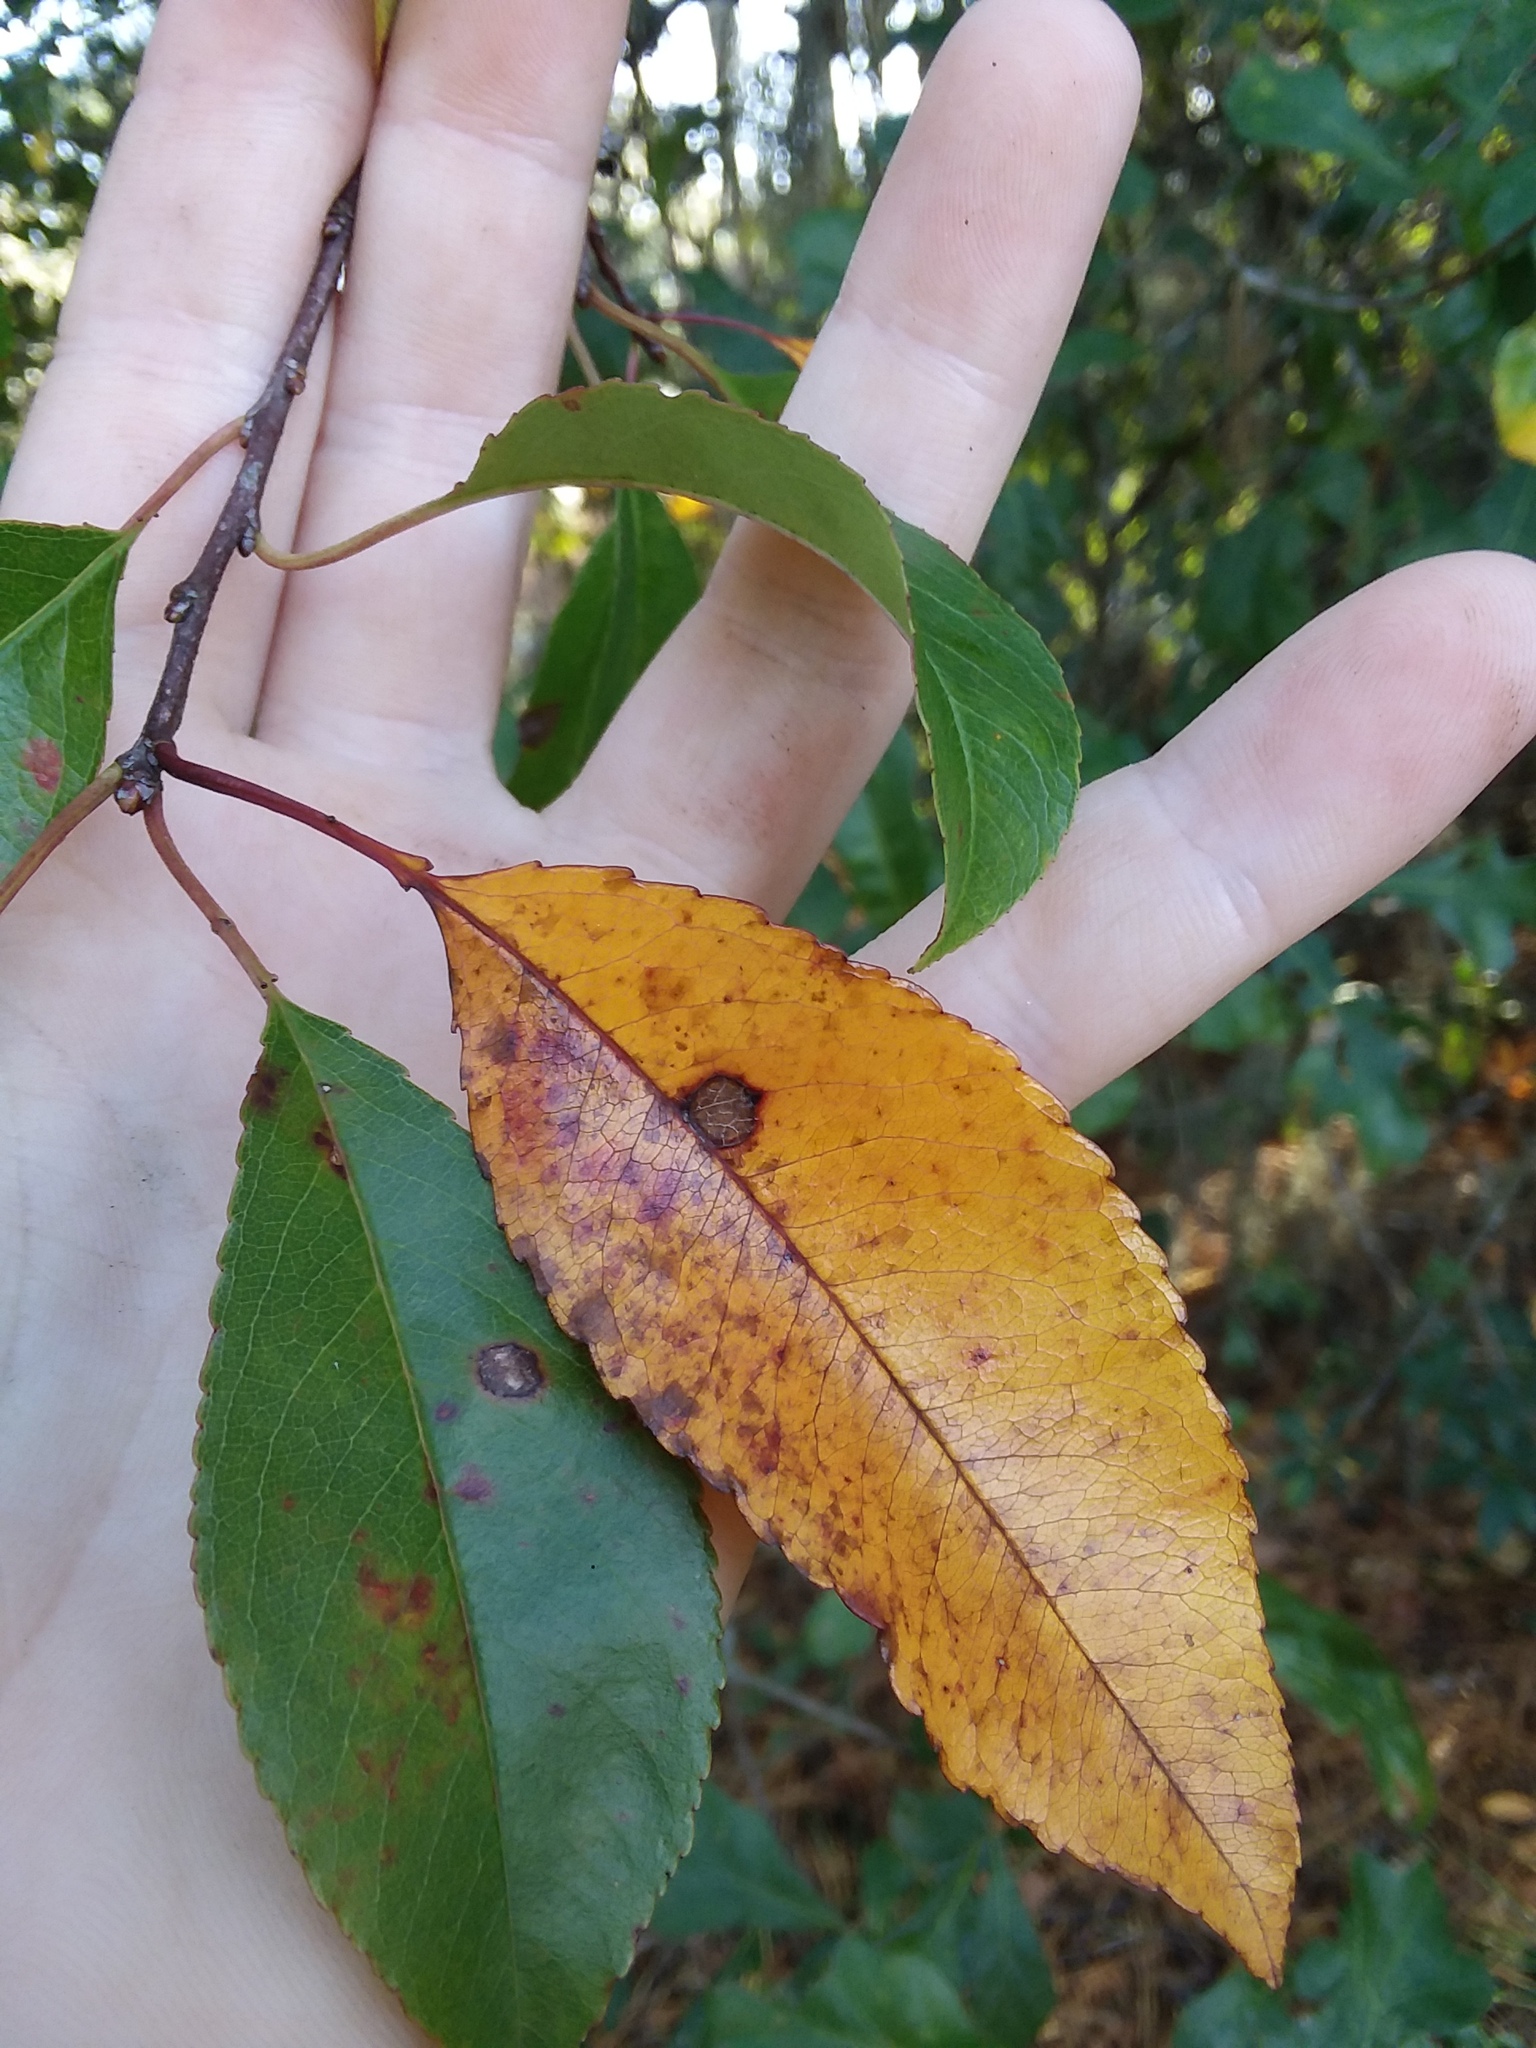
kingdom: Plantae
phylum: Tracheophyta
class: Magnoliopsida
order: Rosales
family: Rosaceae
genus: Prunus
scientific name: Prunus serotina
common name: Black cherry
